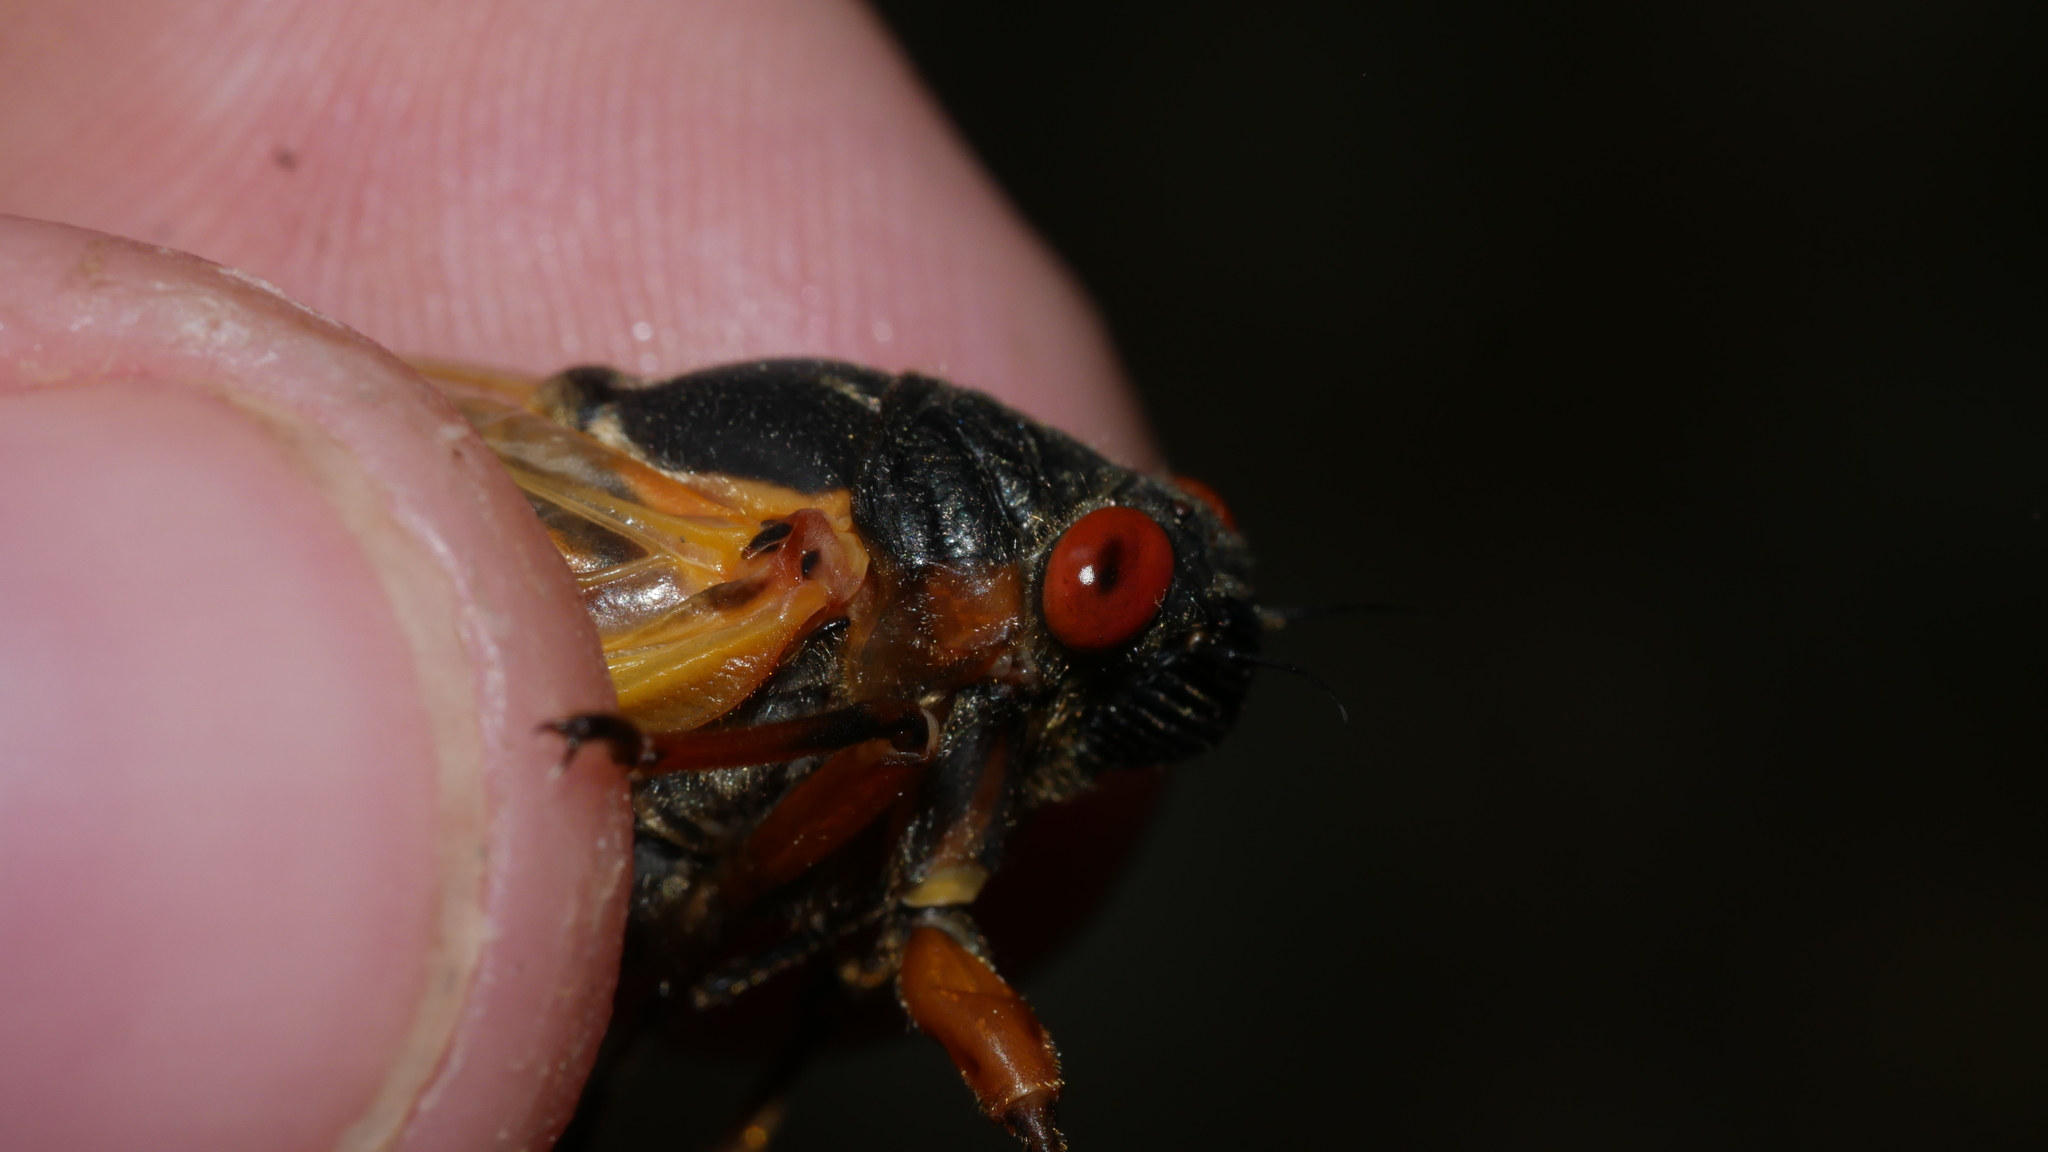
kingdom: Animalia
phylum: Arthropoda
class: Insecta
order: Hemiptera
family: Cicadidae
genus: Magicicada
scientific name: Magicicada septendecim
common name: Periodical cicada
